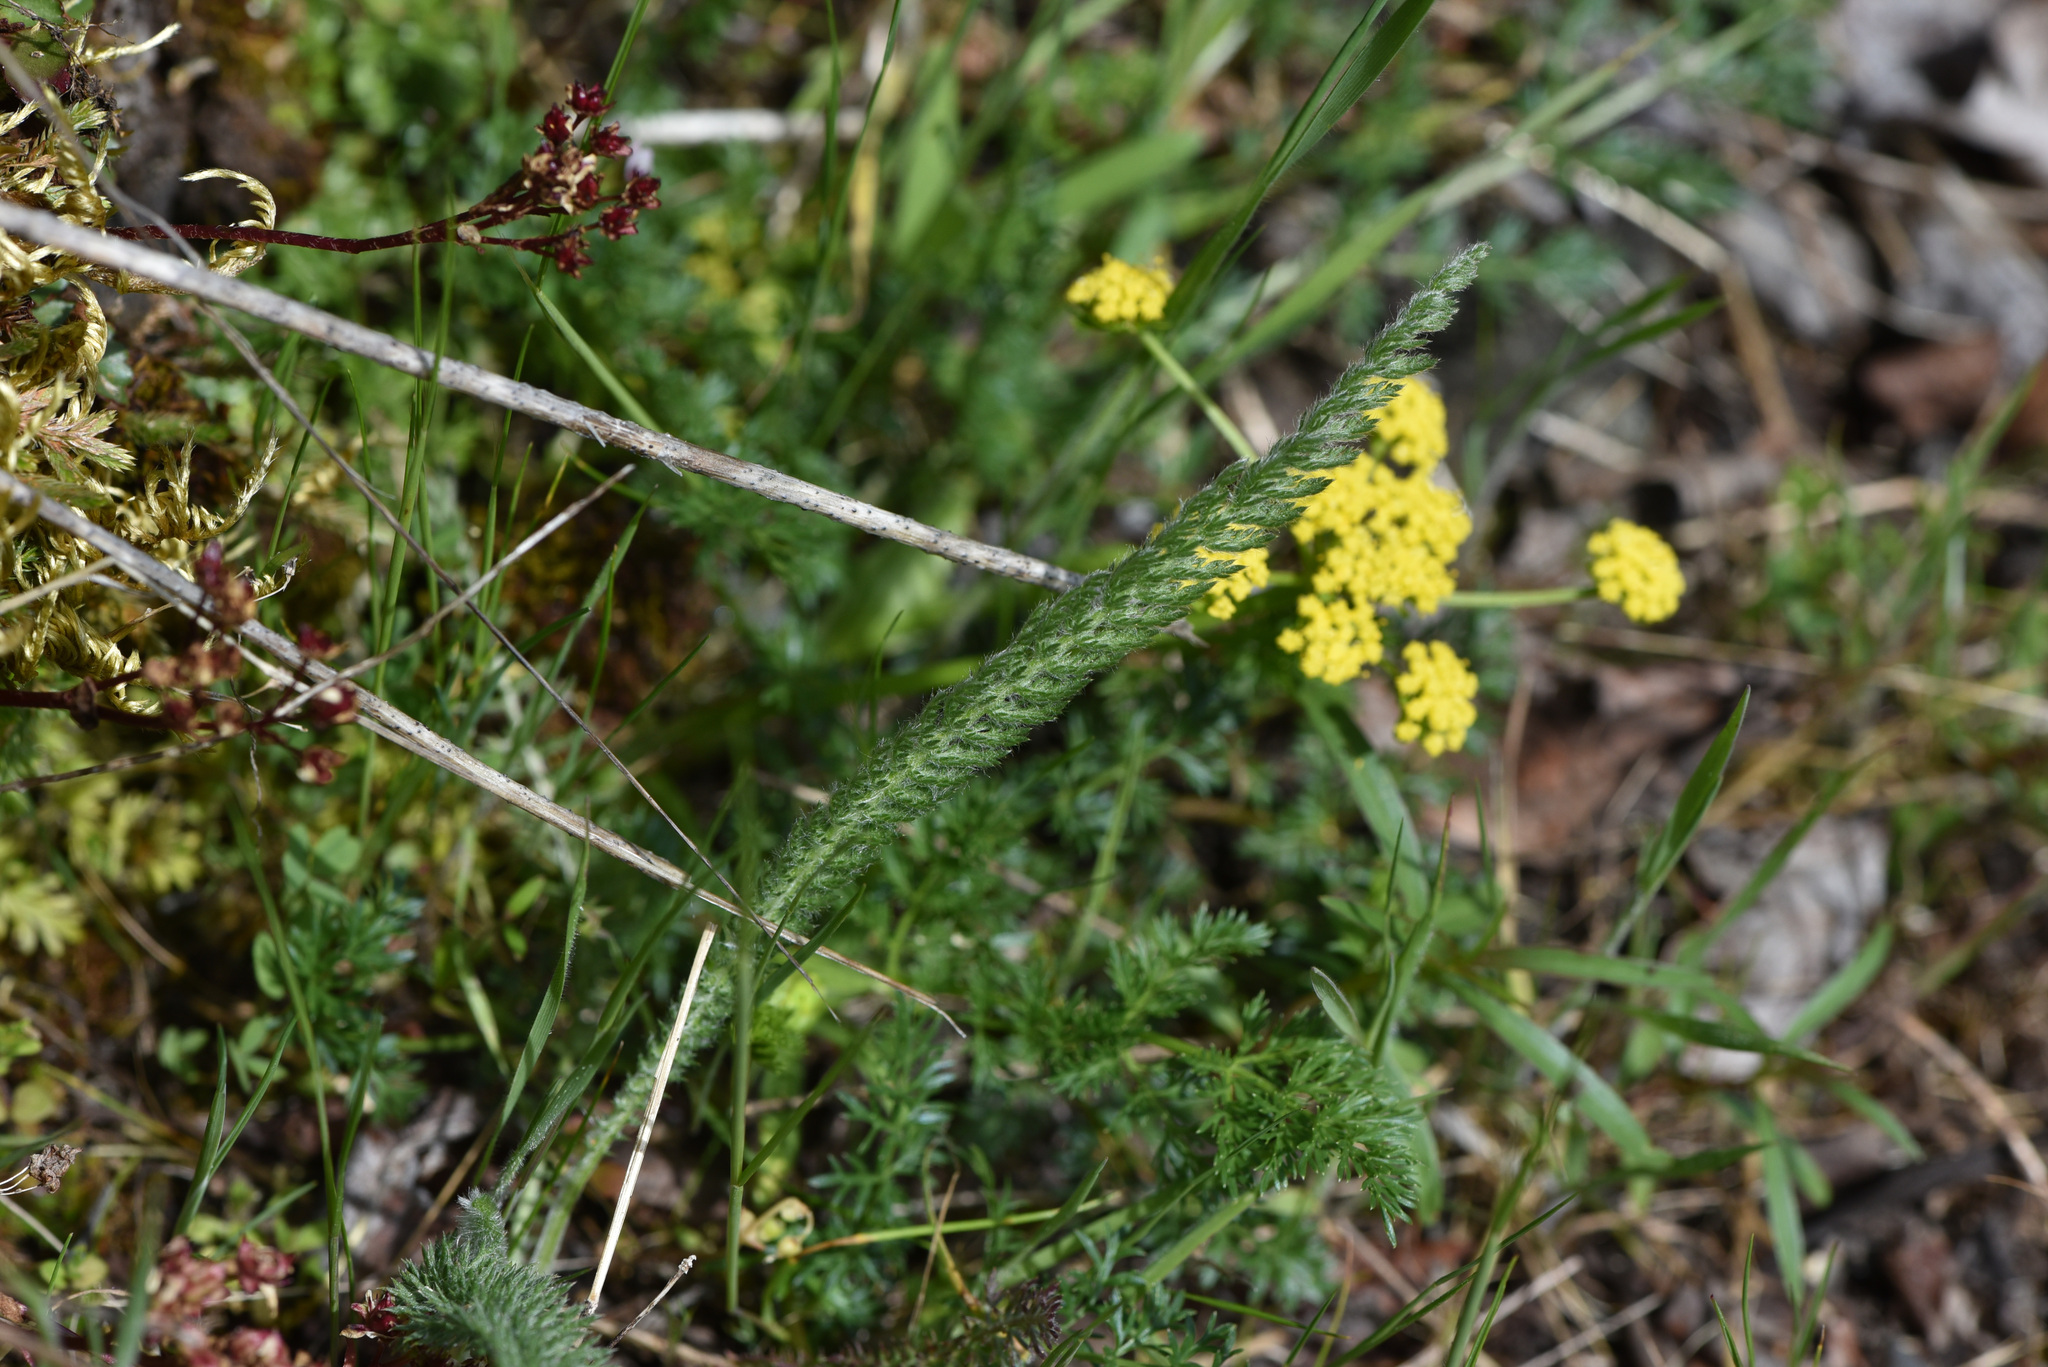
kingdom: Plantae
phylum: Tracheophyta
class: Magnoliopsida
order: Apiales
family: Apiaceae
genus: Lomatium
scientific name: Lomatium utriculatum
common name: Fine-leaf desert-parsley
